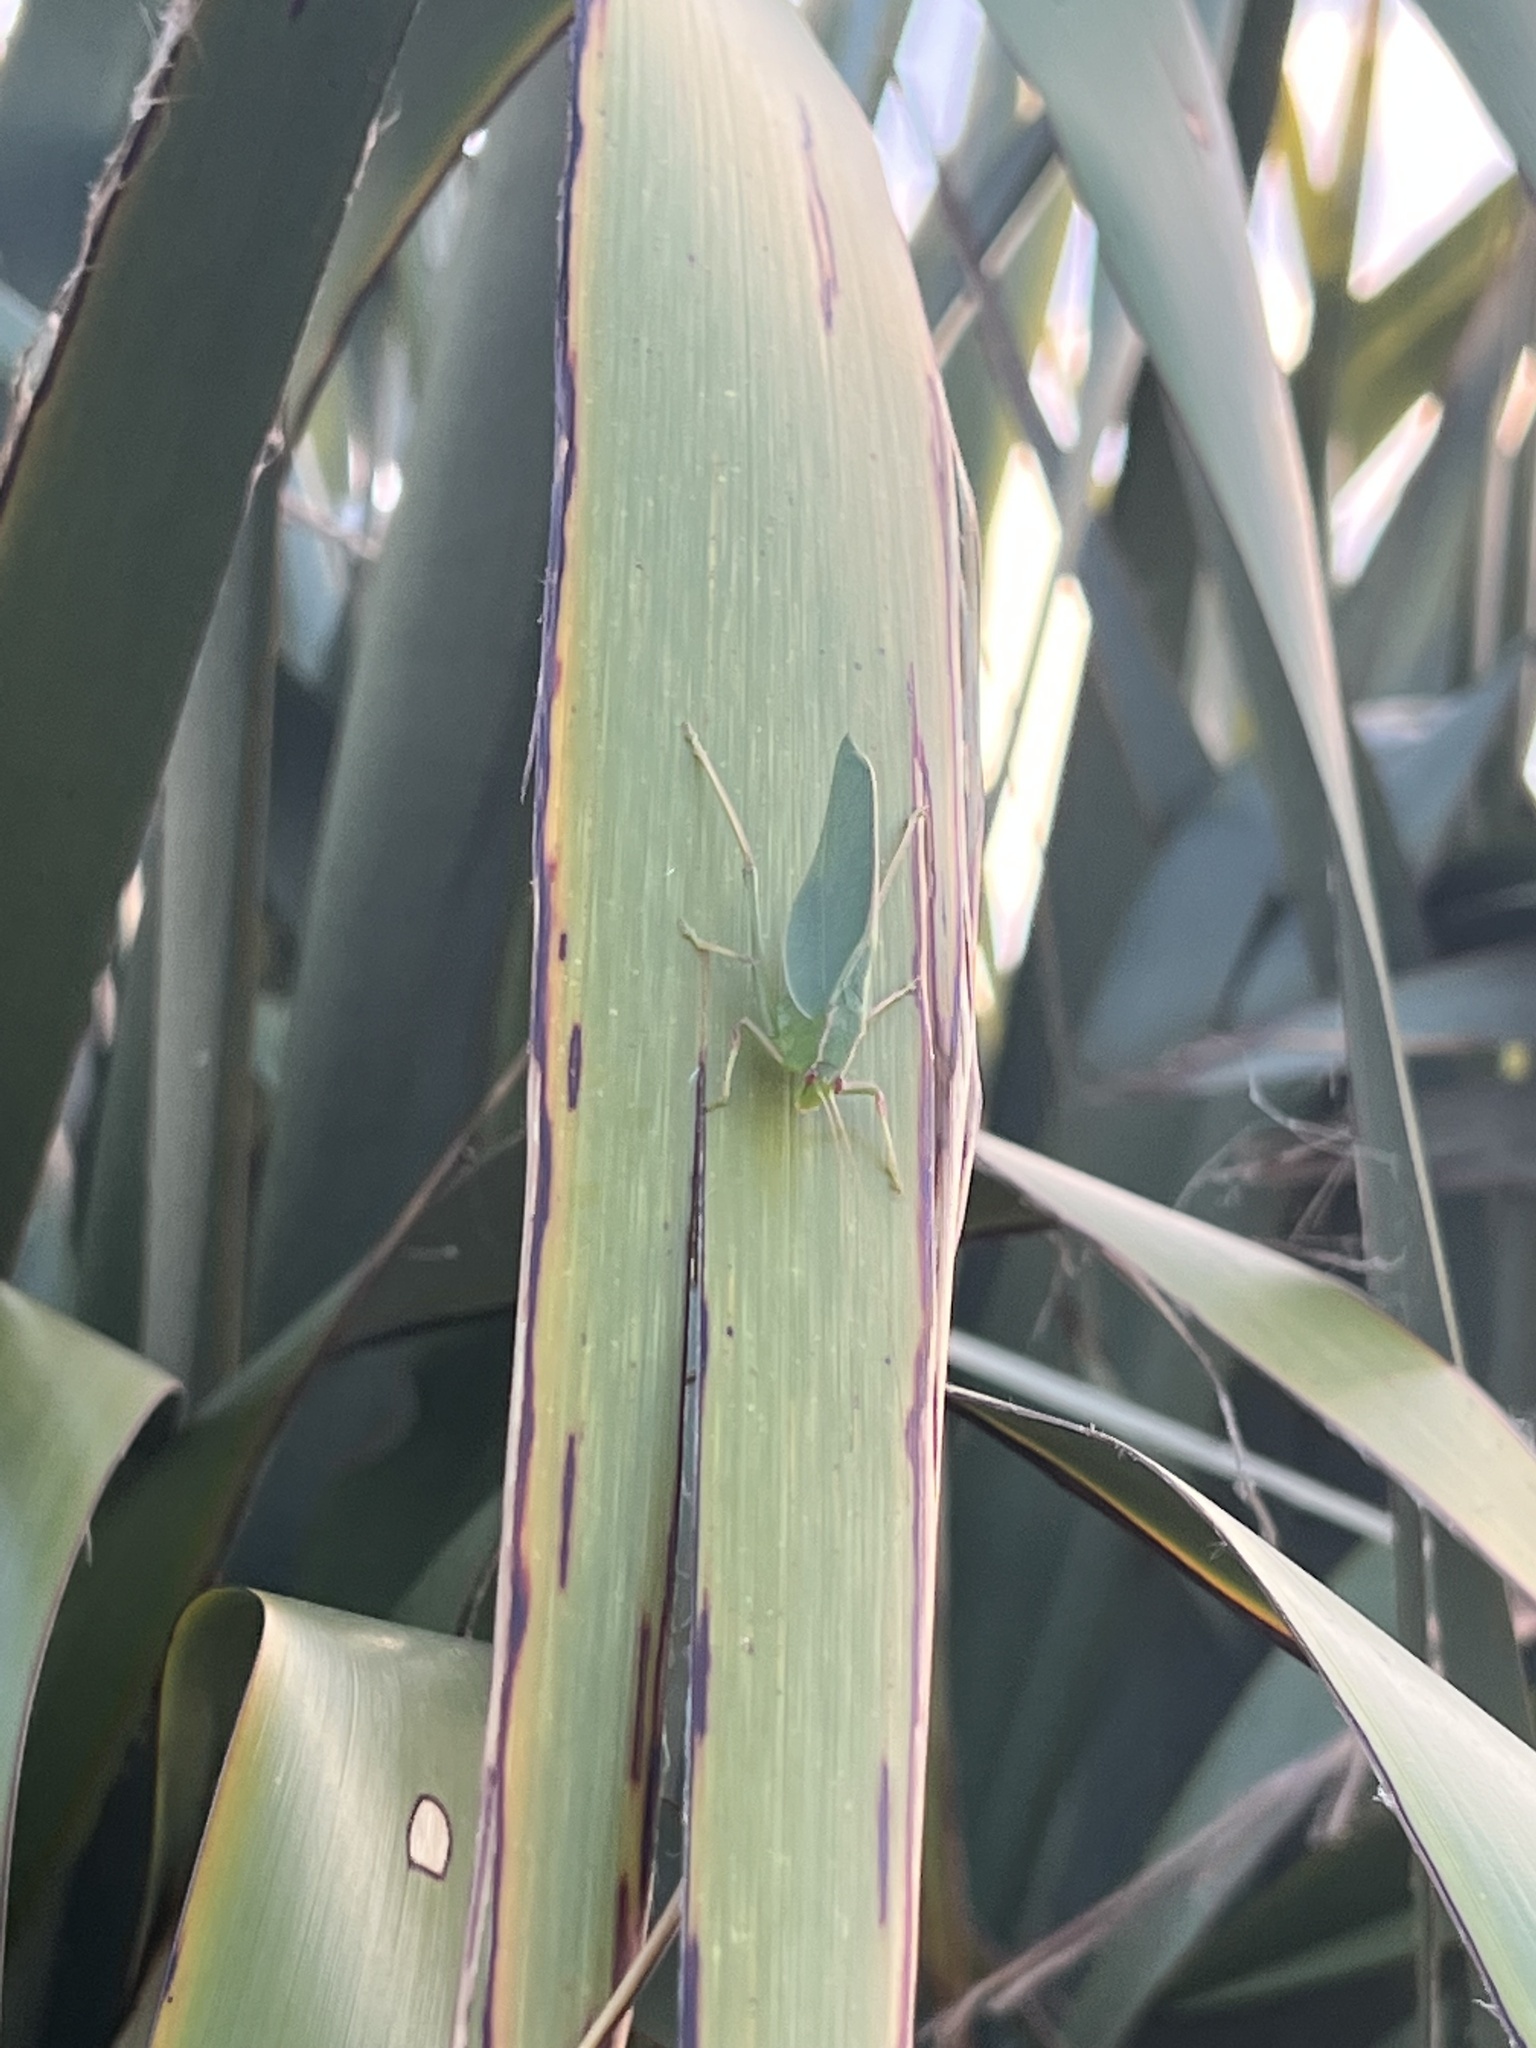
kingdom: Animalia
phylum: Arthropoda
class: Insecta
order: Orthoptera
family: Tettigoniidae
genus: Caedicia
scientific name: Caedicia simplex
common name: Common garden katydid
